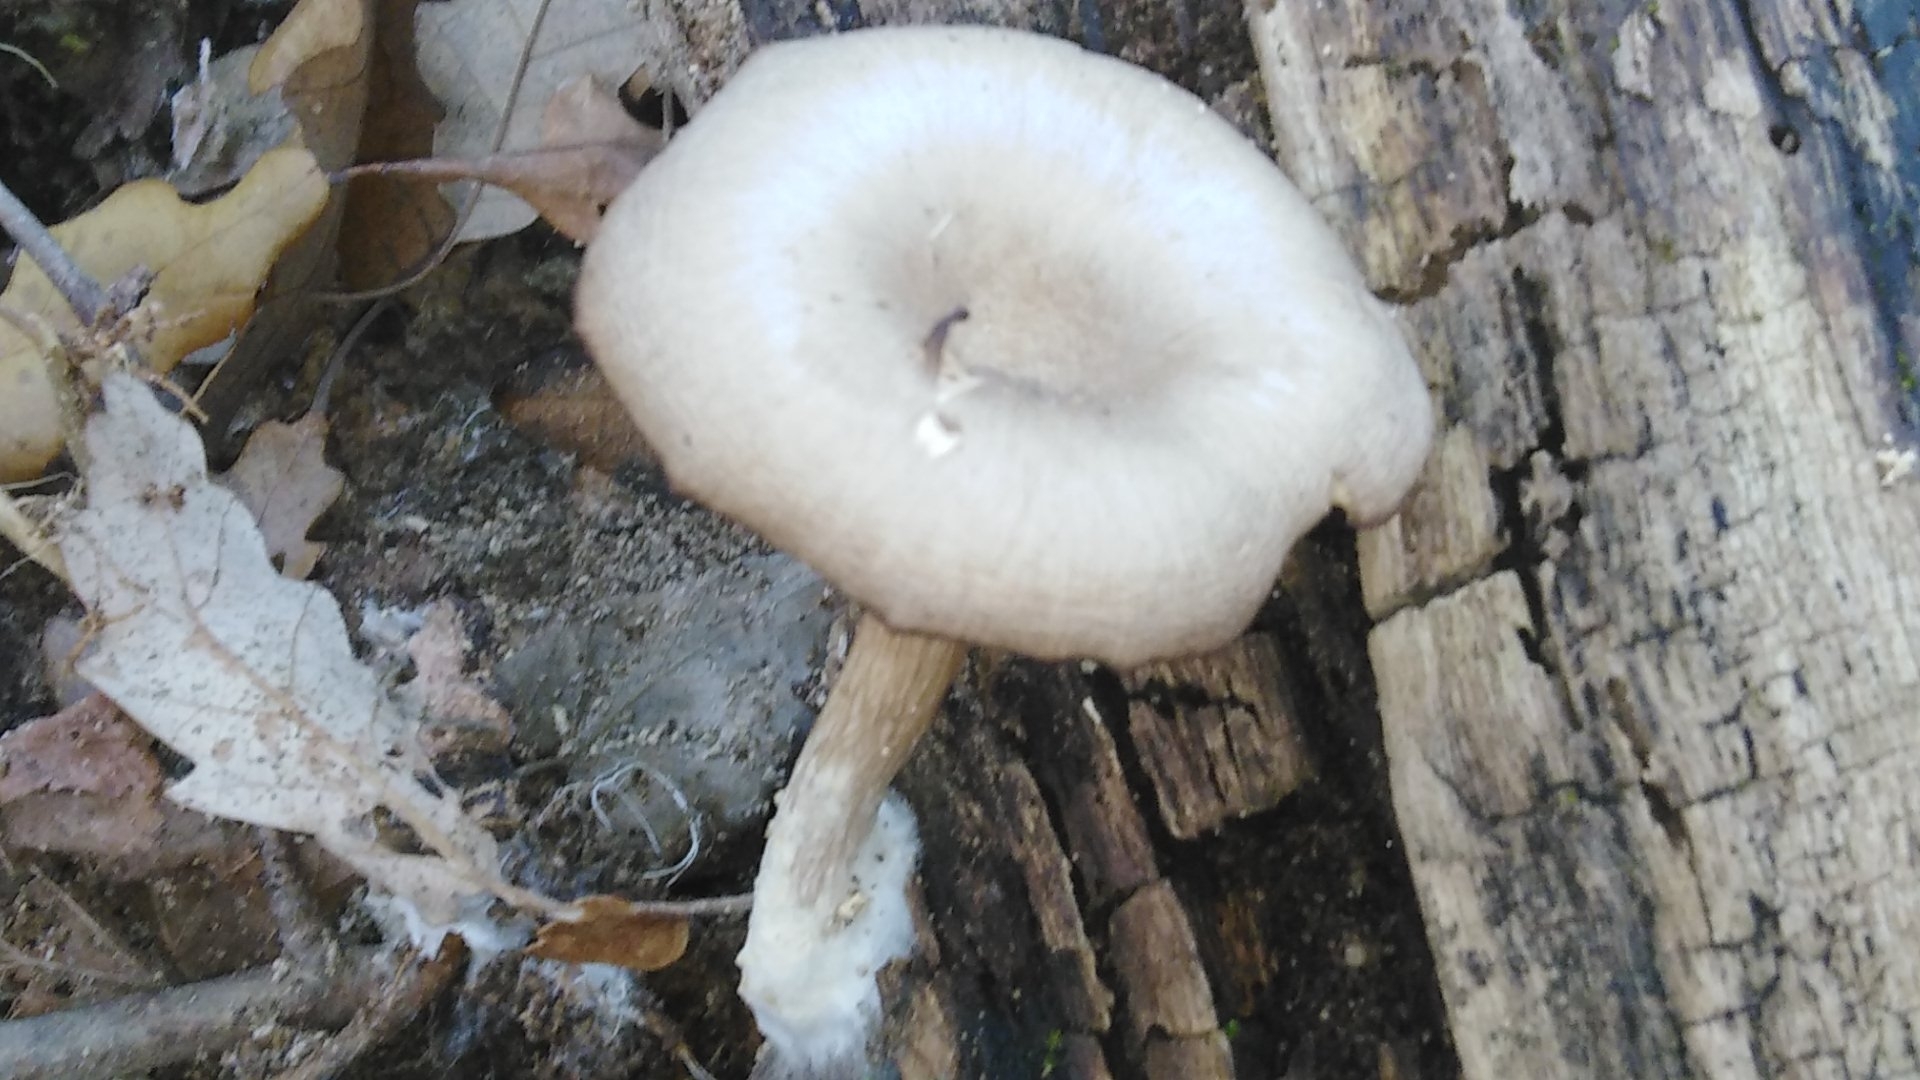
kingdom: Fungi
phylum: Basidiomycota
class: Agaricomycetes
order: Agaricales
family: Hygrophoraceae
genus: Arrhenia
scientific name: Arrhenia epichysium
